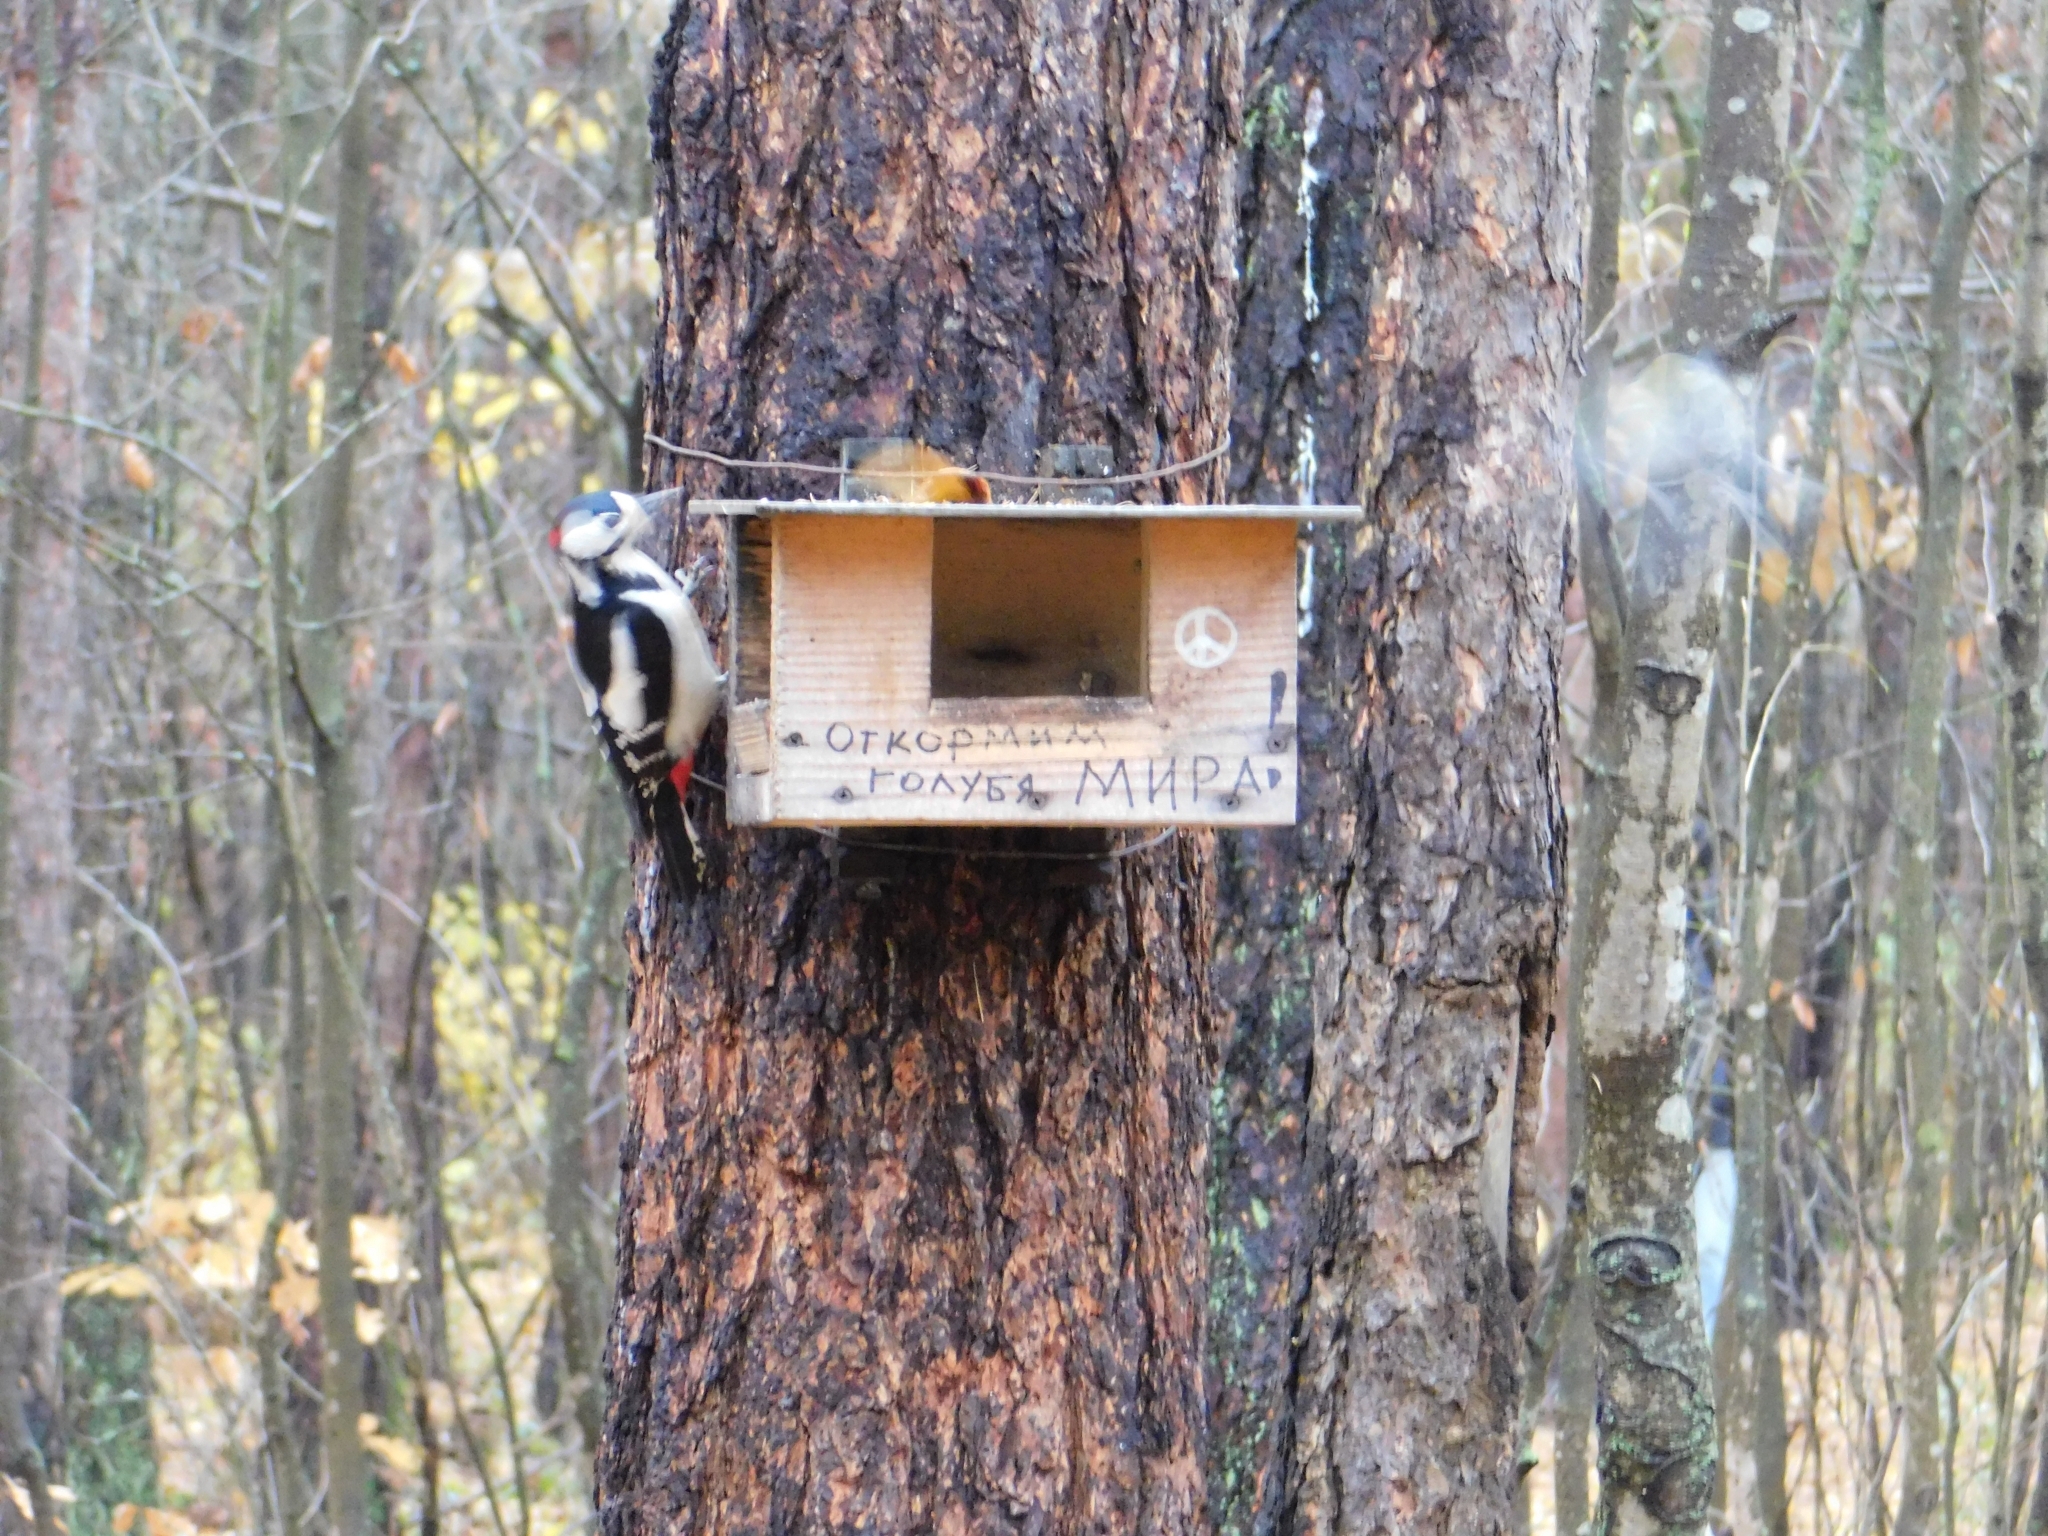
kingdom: Animalia
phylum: Chordata
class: Aves
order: Piciformes
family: Picidae
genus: Dendrocopos
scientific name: Dendrocopos major
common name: Great spotted woodpecker
